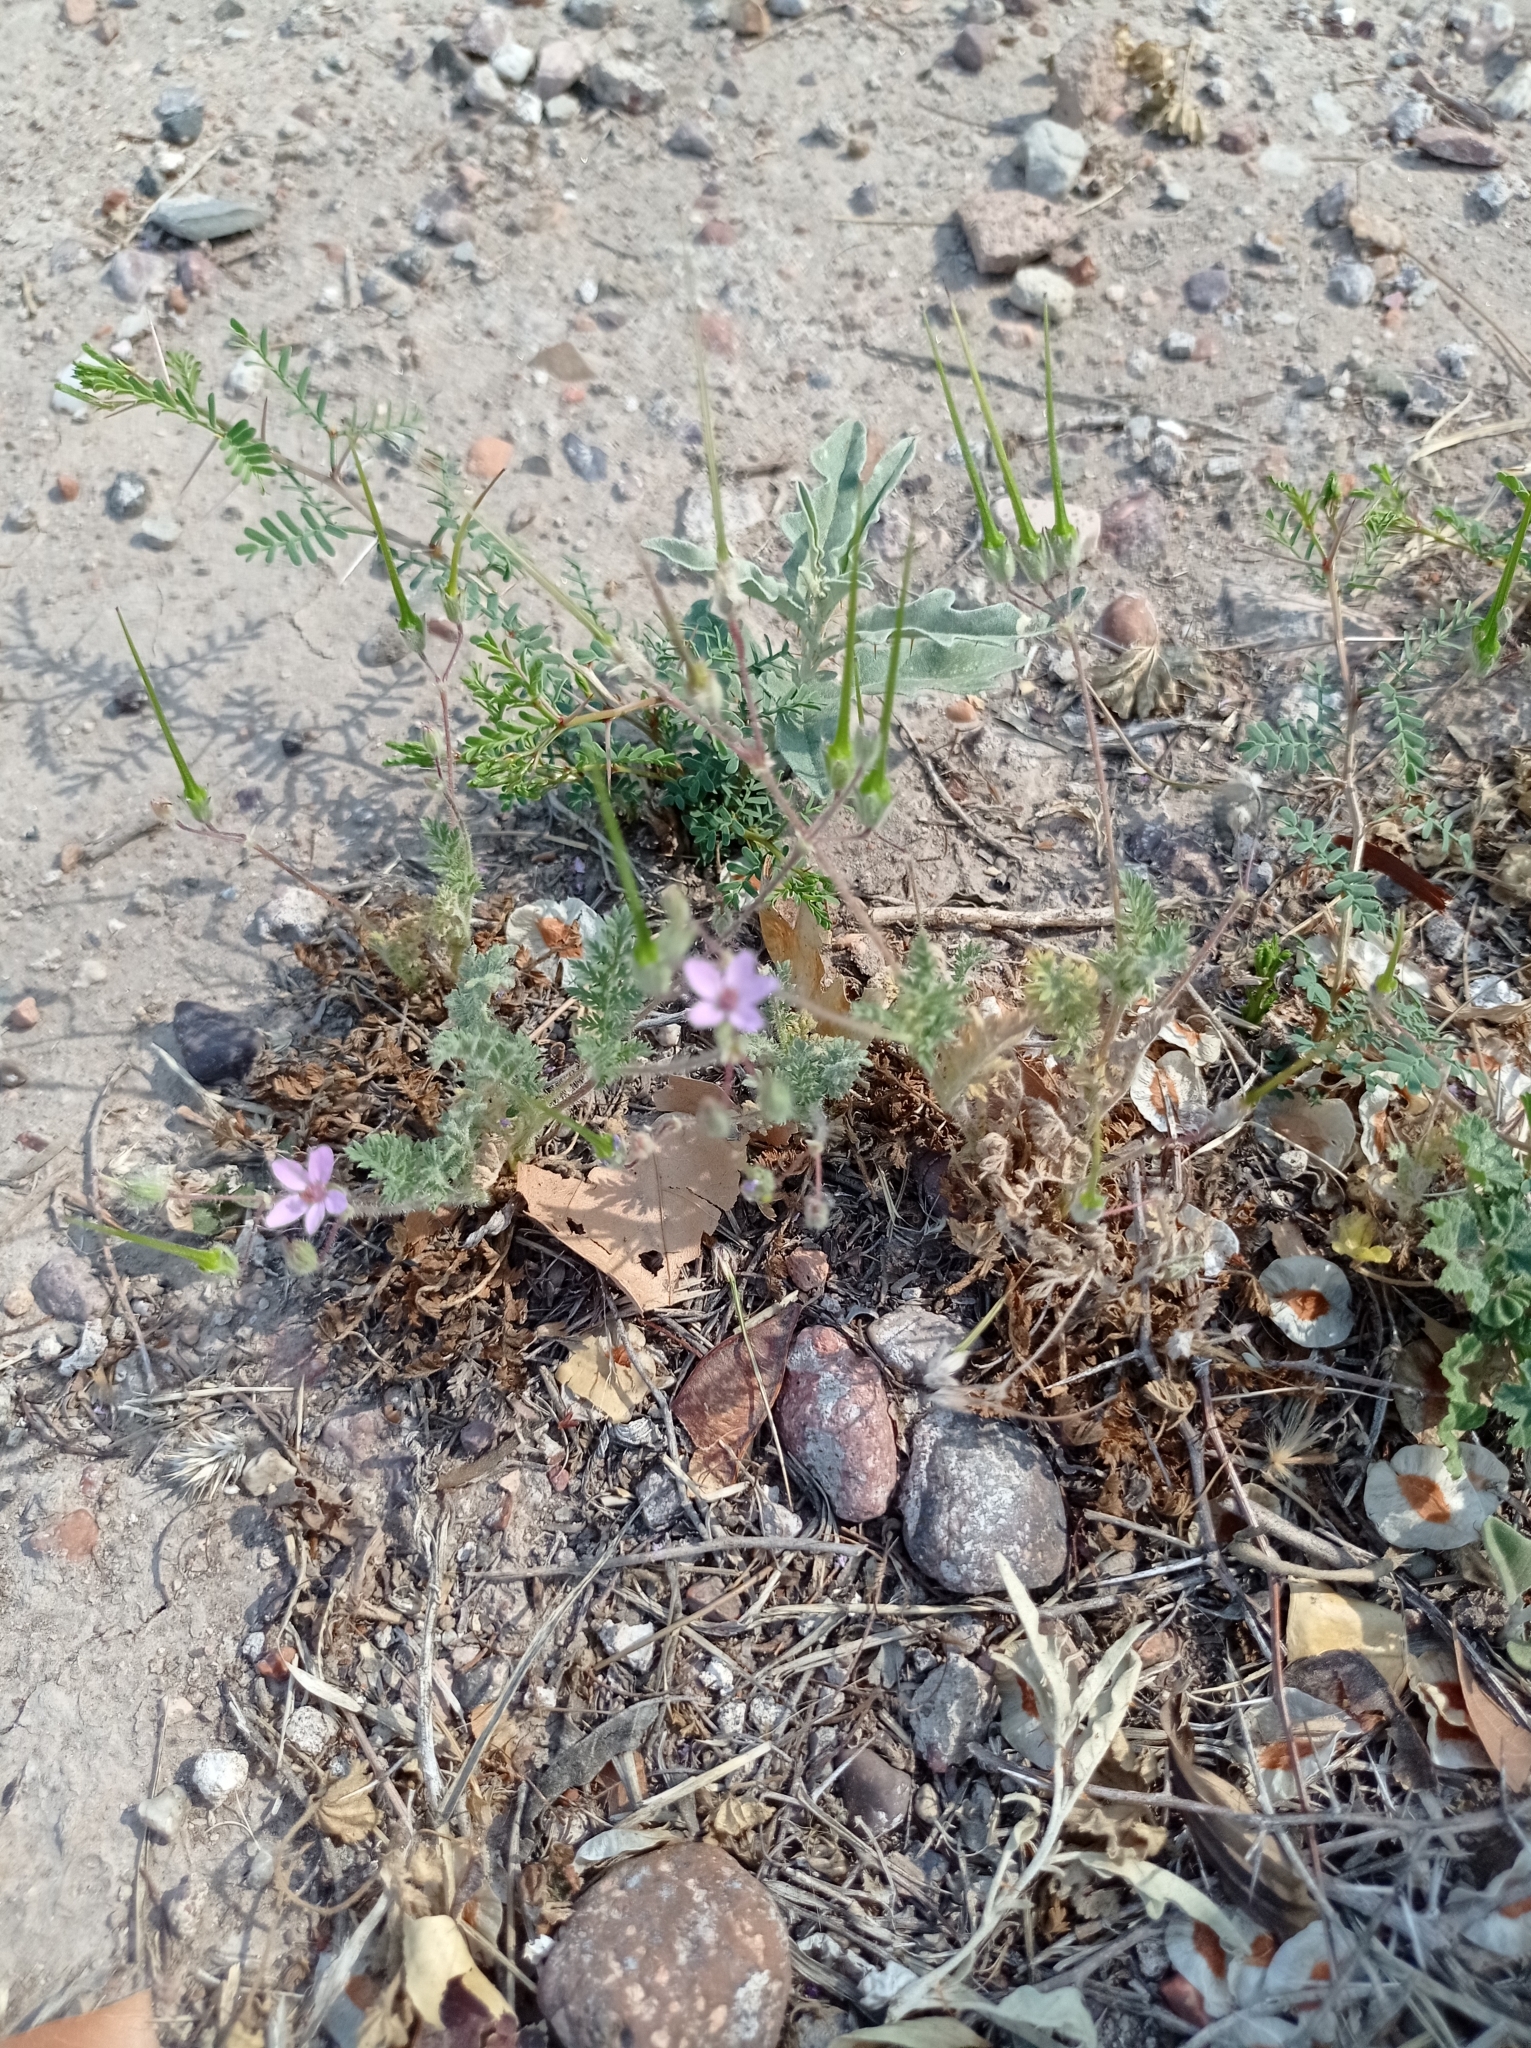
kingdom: Plantae
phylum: Tracheophyta
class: Magnoliopsida
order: Geraniales
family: Geraniaceae
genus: Erodium
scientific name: Erodium cicutarium
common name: Common stork's-bill
